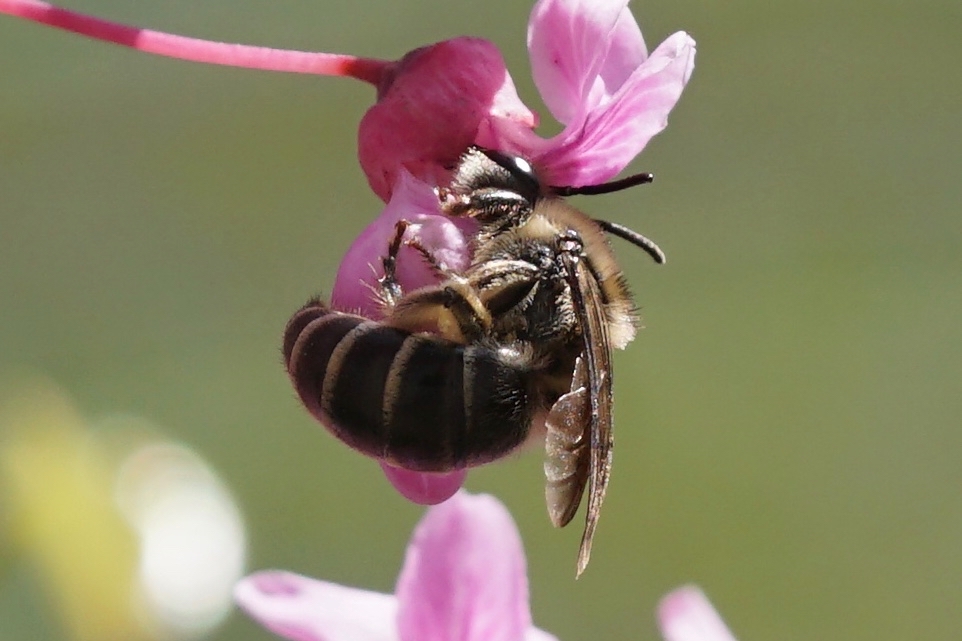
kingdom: Animalia
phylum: Arthropoda
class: Insecta
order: Hymenoptera
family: Colletidae
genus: Colletes
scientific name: Colletes inaequalis
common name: Unequal cellophane bee
